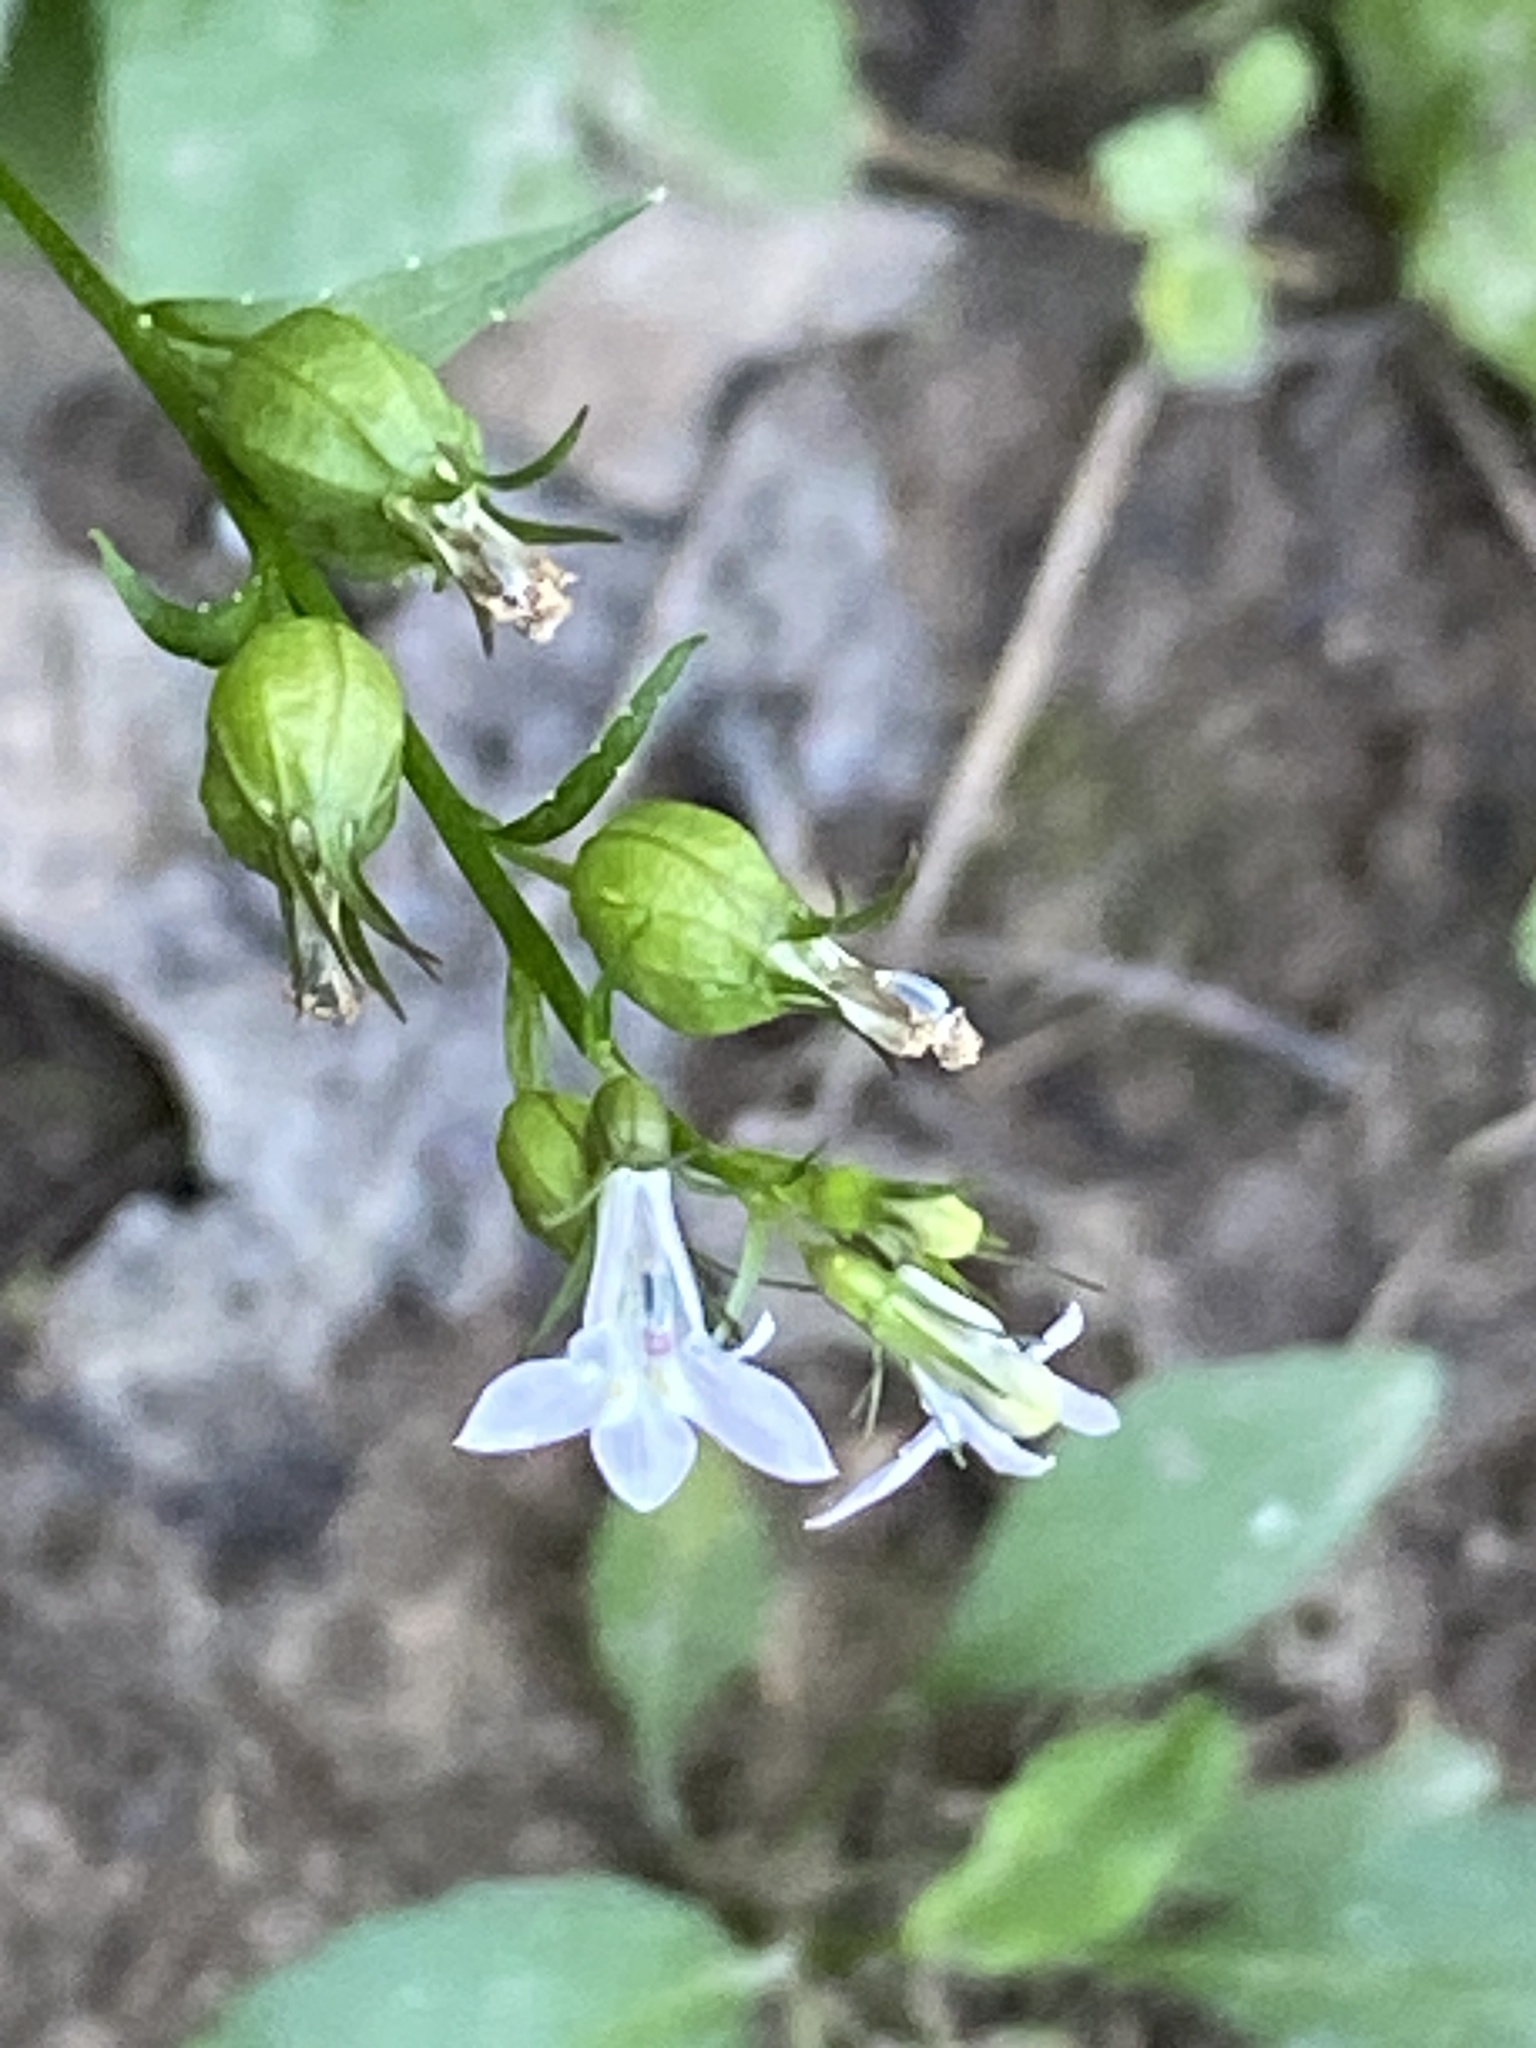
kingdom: Plantae
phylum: Tracheophyta
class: Magnoliopsida
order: Asterales
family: Campanulaceae
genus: Lobelia
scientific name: Lobelia inflata
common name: Indian tobacco
